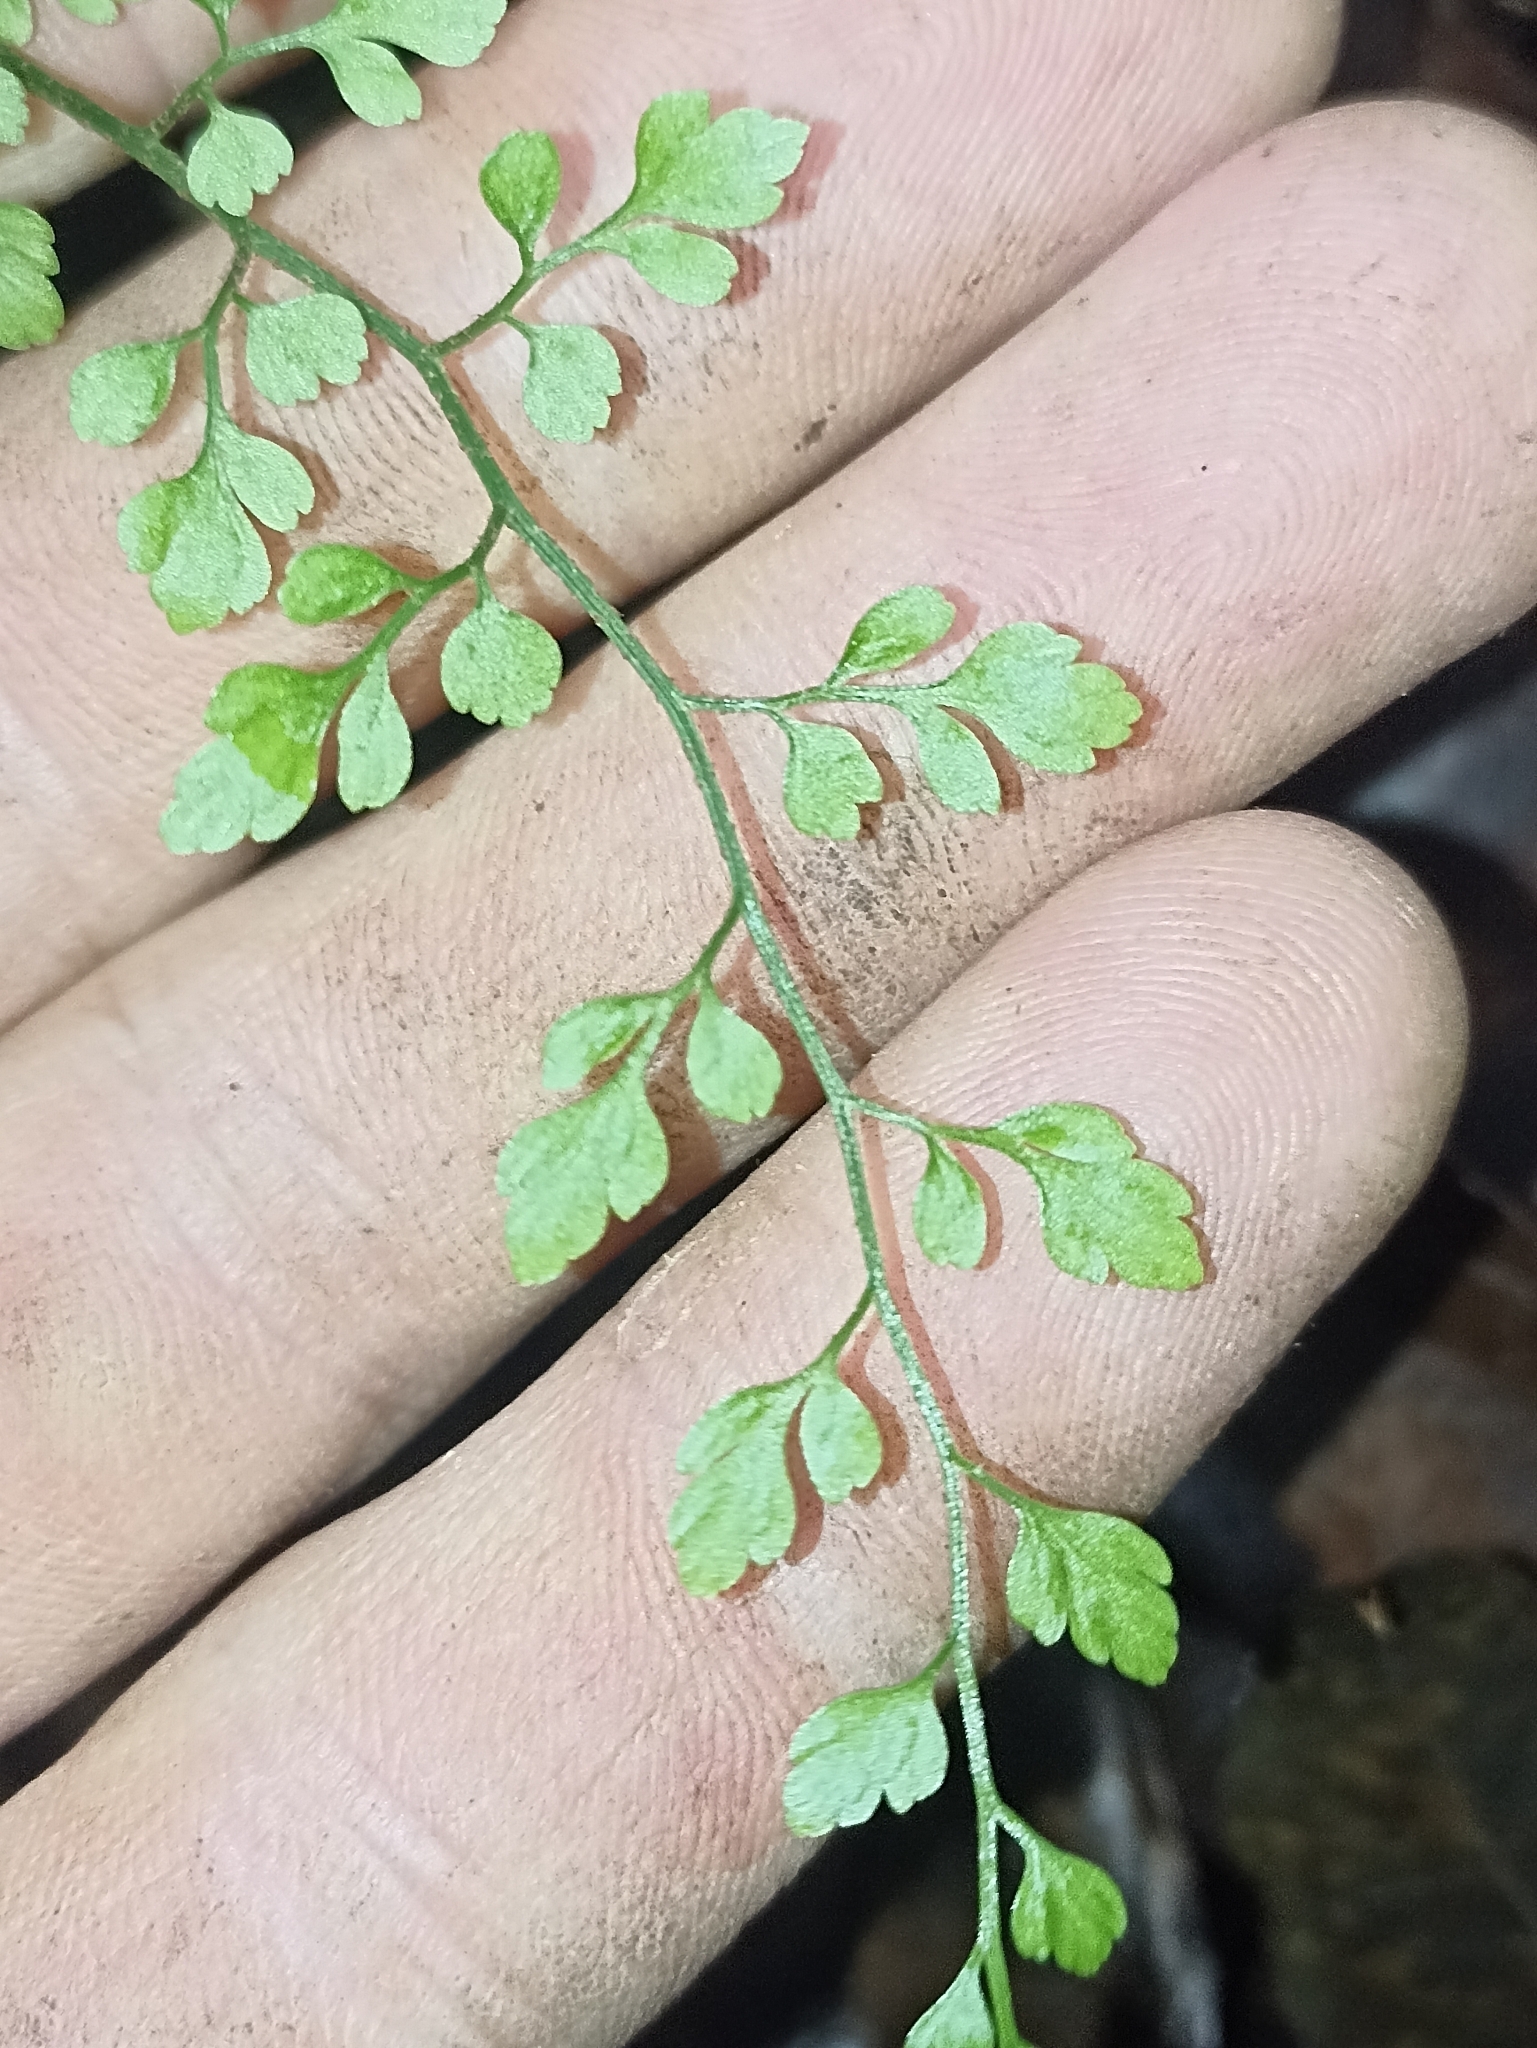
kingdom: Plantae
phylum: Tracheophyta
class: Polypodiopsida
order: Polypodiales
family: Aspleniaceae
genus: Asplenium
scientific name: Asplenium hookerianum
